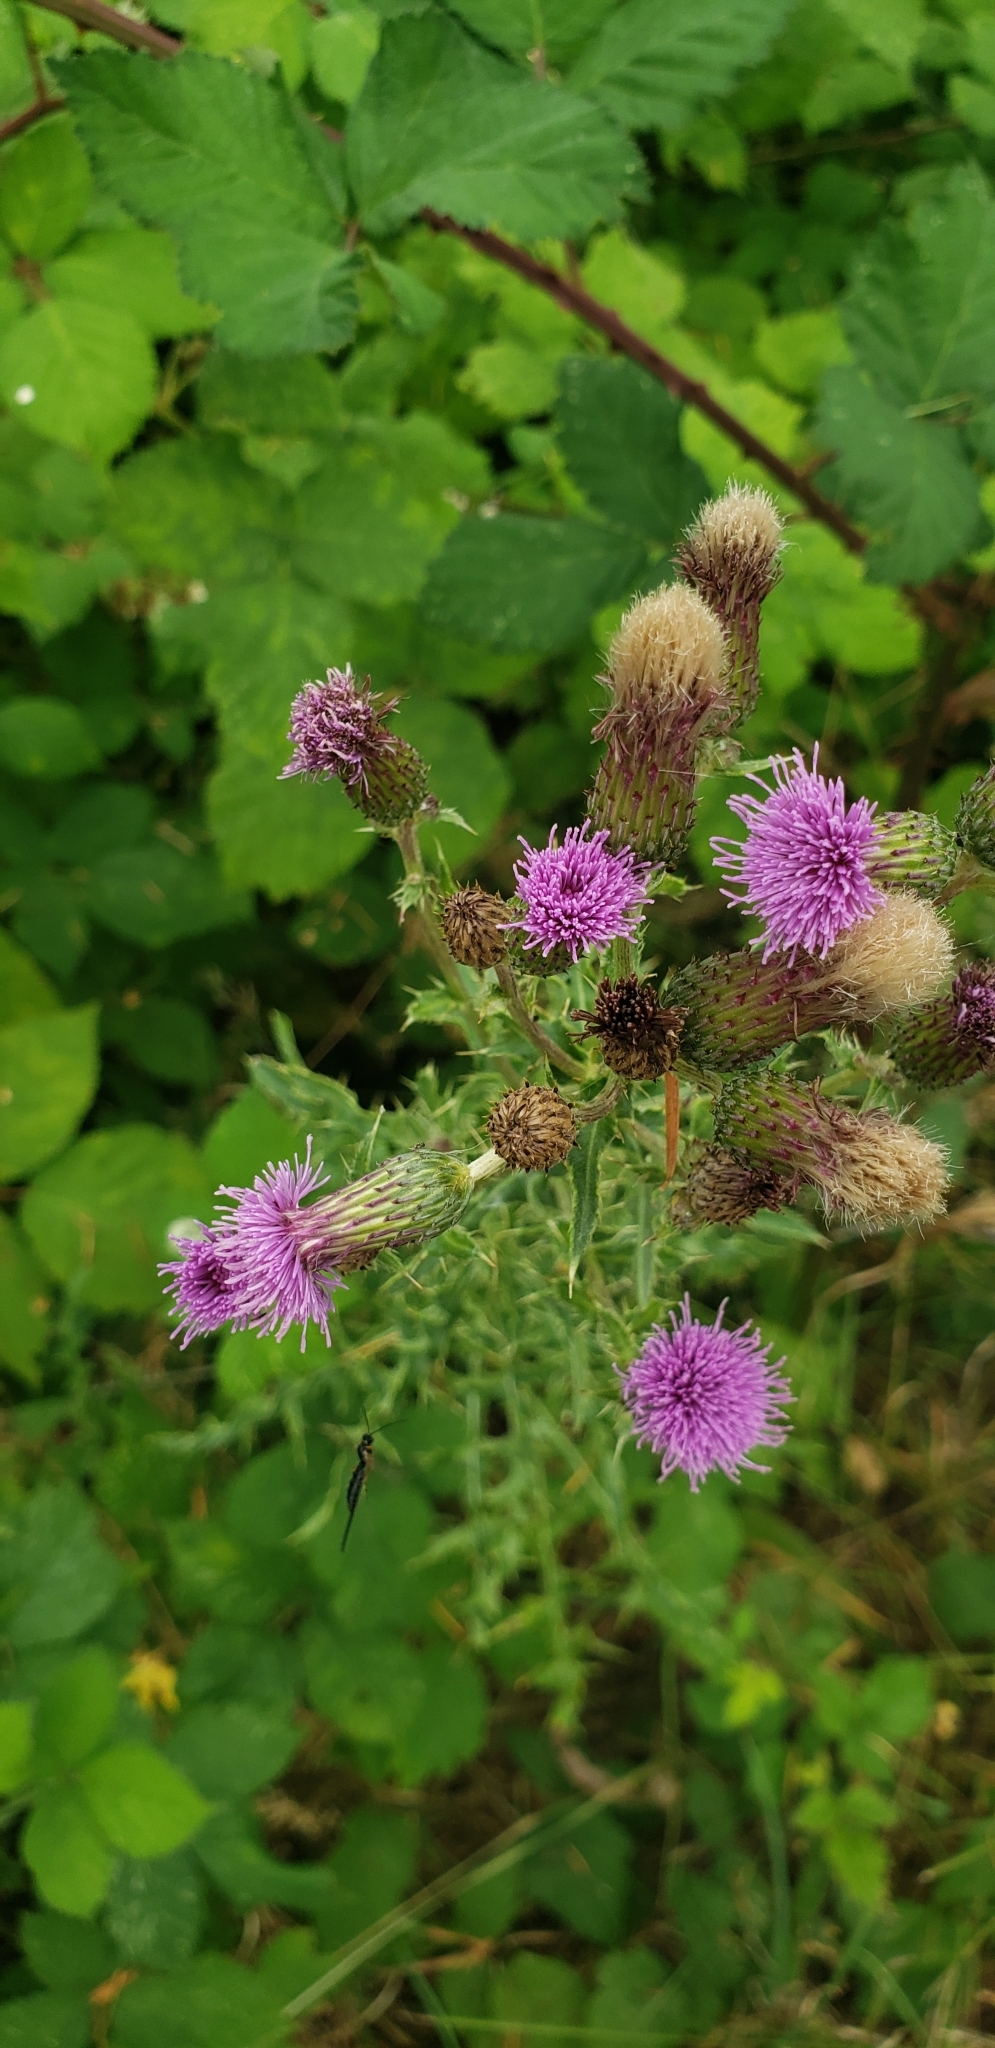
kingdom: Plantae
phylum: Tracheophyta
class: Magnoliopsida
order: Asterales
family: Asteraceae
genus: Cirsium
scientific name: Cirsium arvense
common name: Creeping thistle
